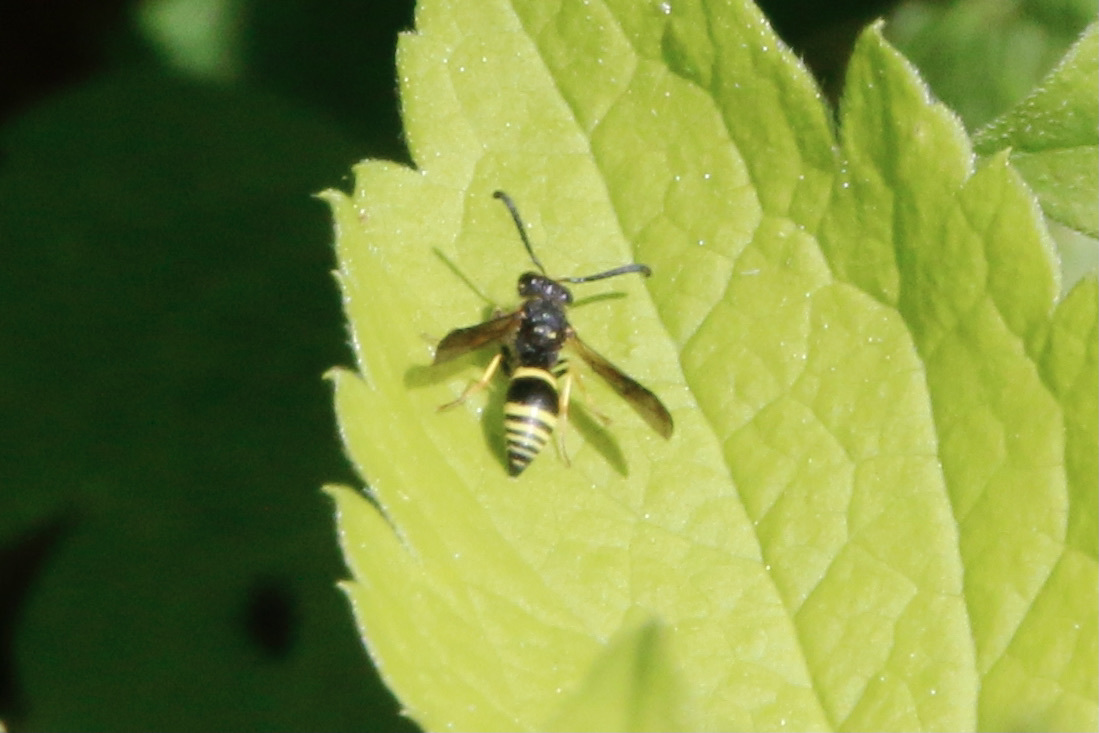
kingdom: Animalia
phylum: Arthropoda
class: Insecta
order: Hymenoptera
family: Vespidae
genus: Ancistrocerus
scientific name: Ancistrocerus
